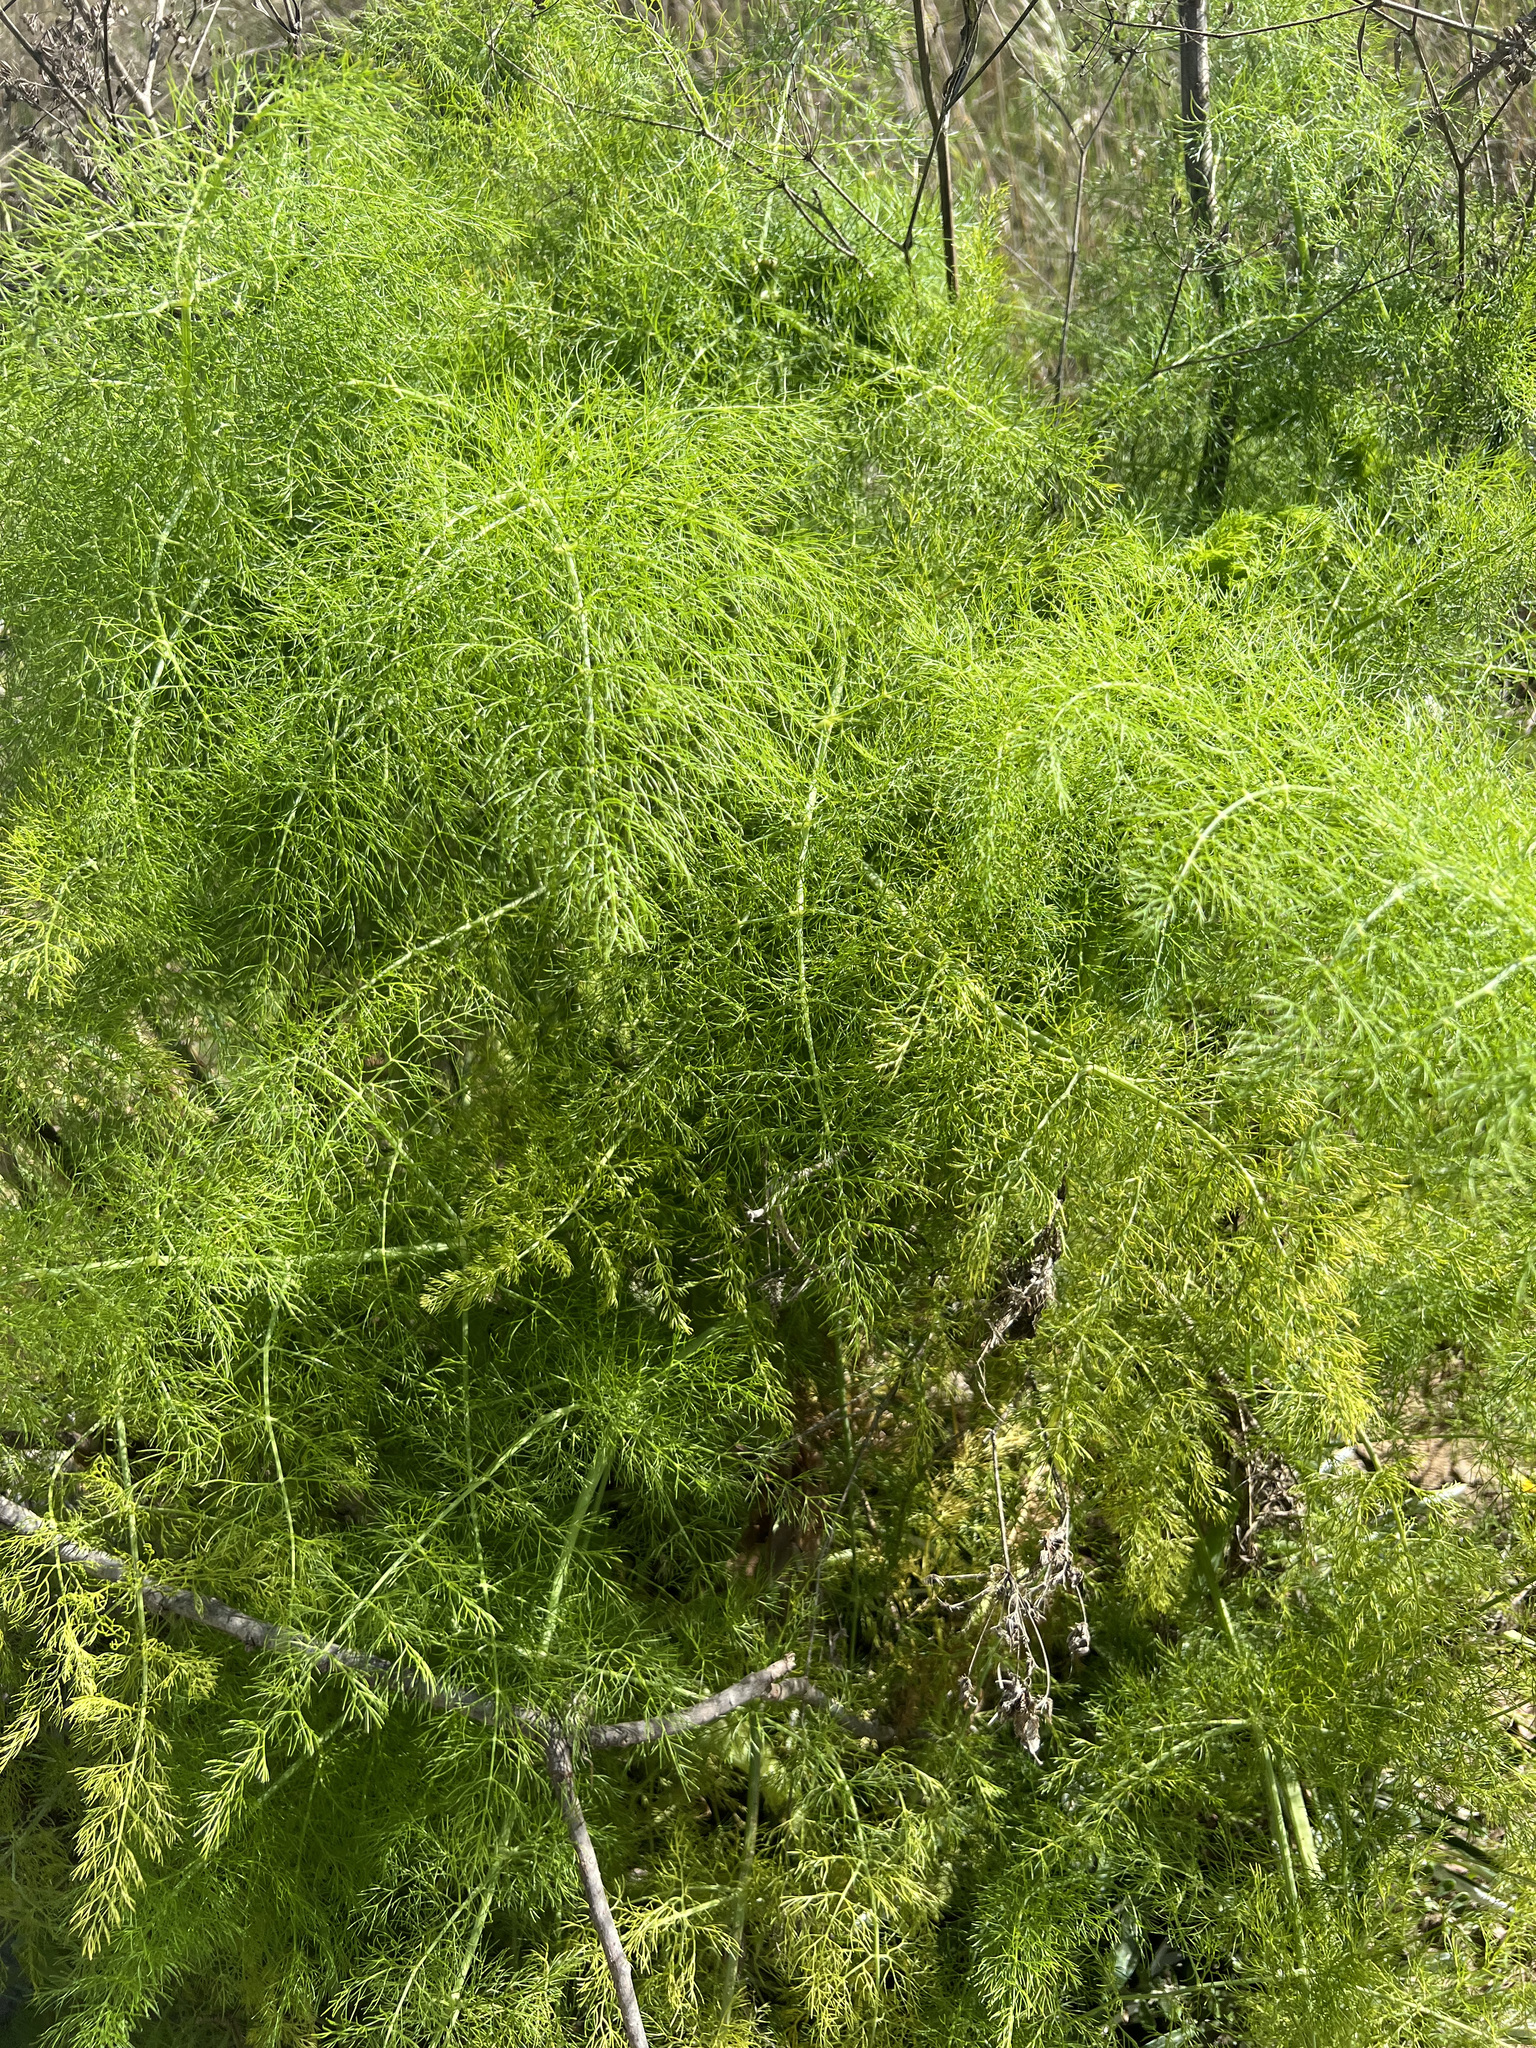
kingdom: Plantae
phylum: Tracheophyta
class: Magnoliopsida
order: Apiales
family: Apiaceae
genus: Foeniculum
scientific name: Foeniculum vulgare
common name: Fennel
